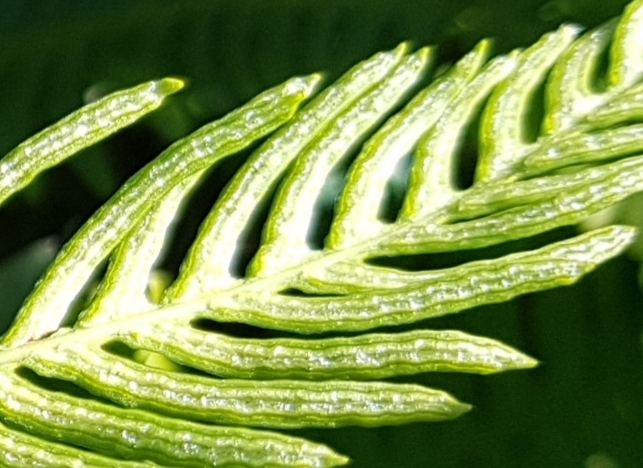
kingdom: Plantae
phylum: Tracheophyta
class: Polypodiopsida
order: Polypodiales
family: Blechnaceae
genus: Struthiopteris
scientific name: Struthiopteris spicant
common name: Deer fern
